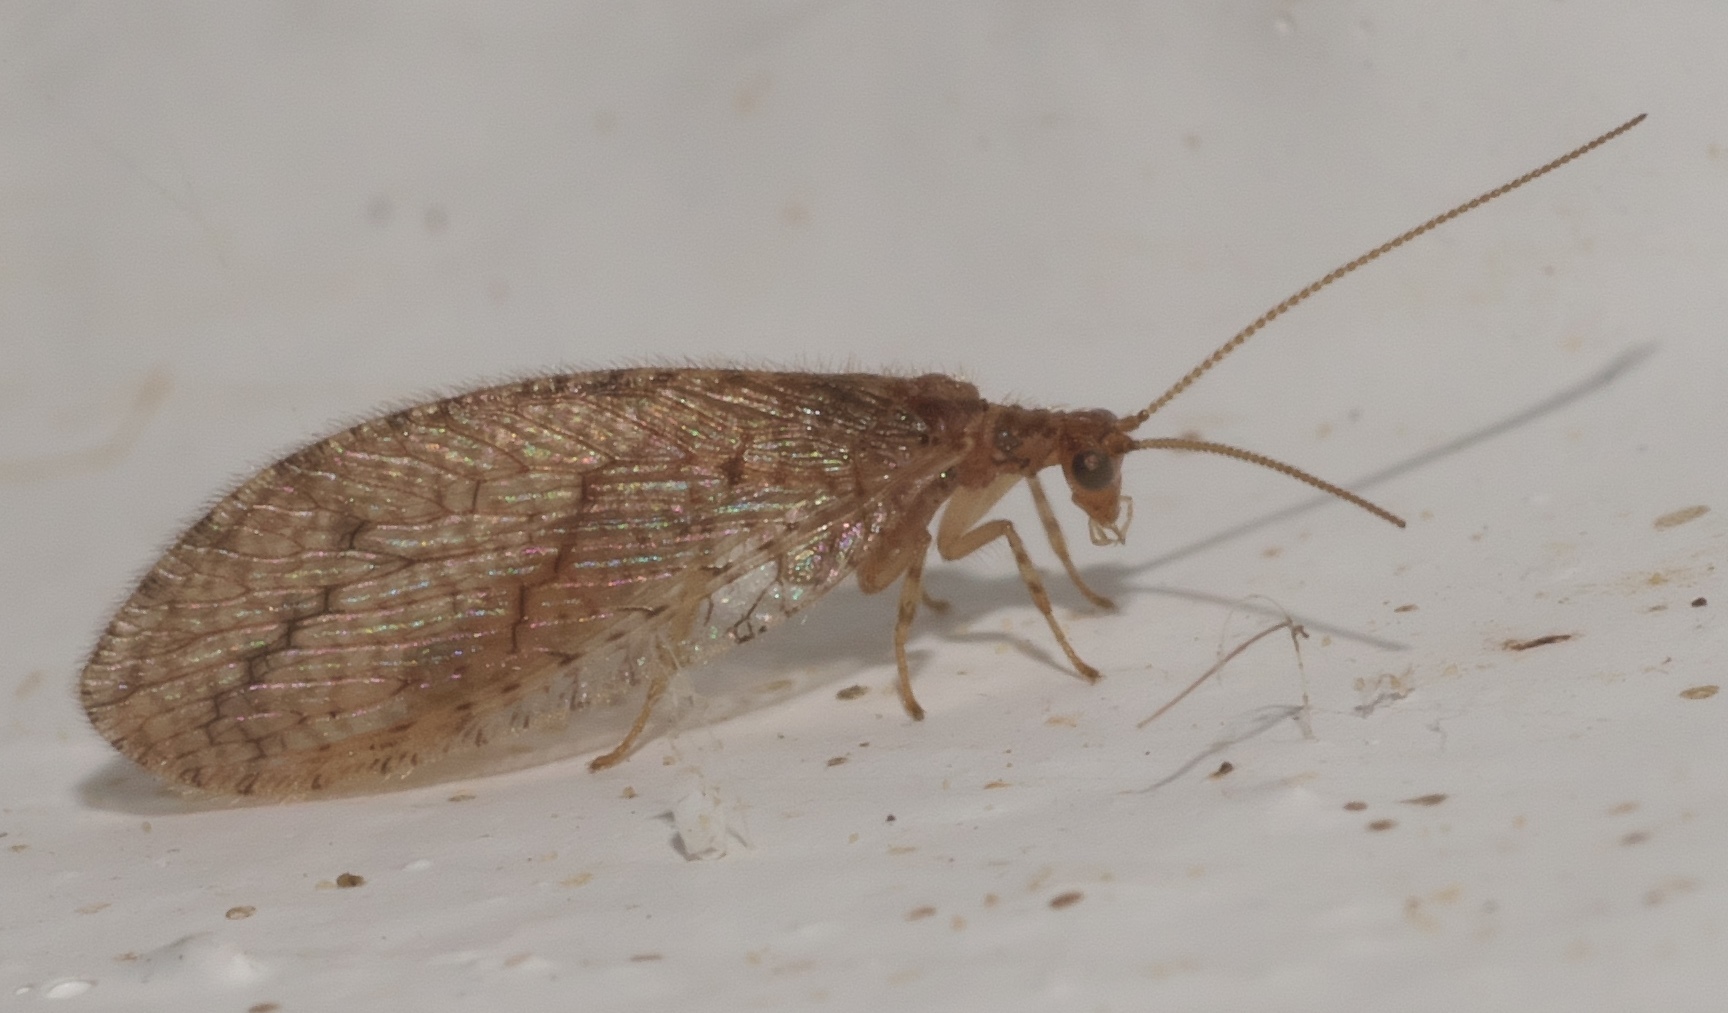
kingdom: Animalia
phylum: Arthropoda
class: Insecta
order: Neuroptera
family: Hemerobiidae
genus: Micromus
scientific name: Micromus posticus
